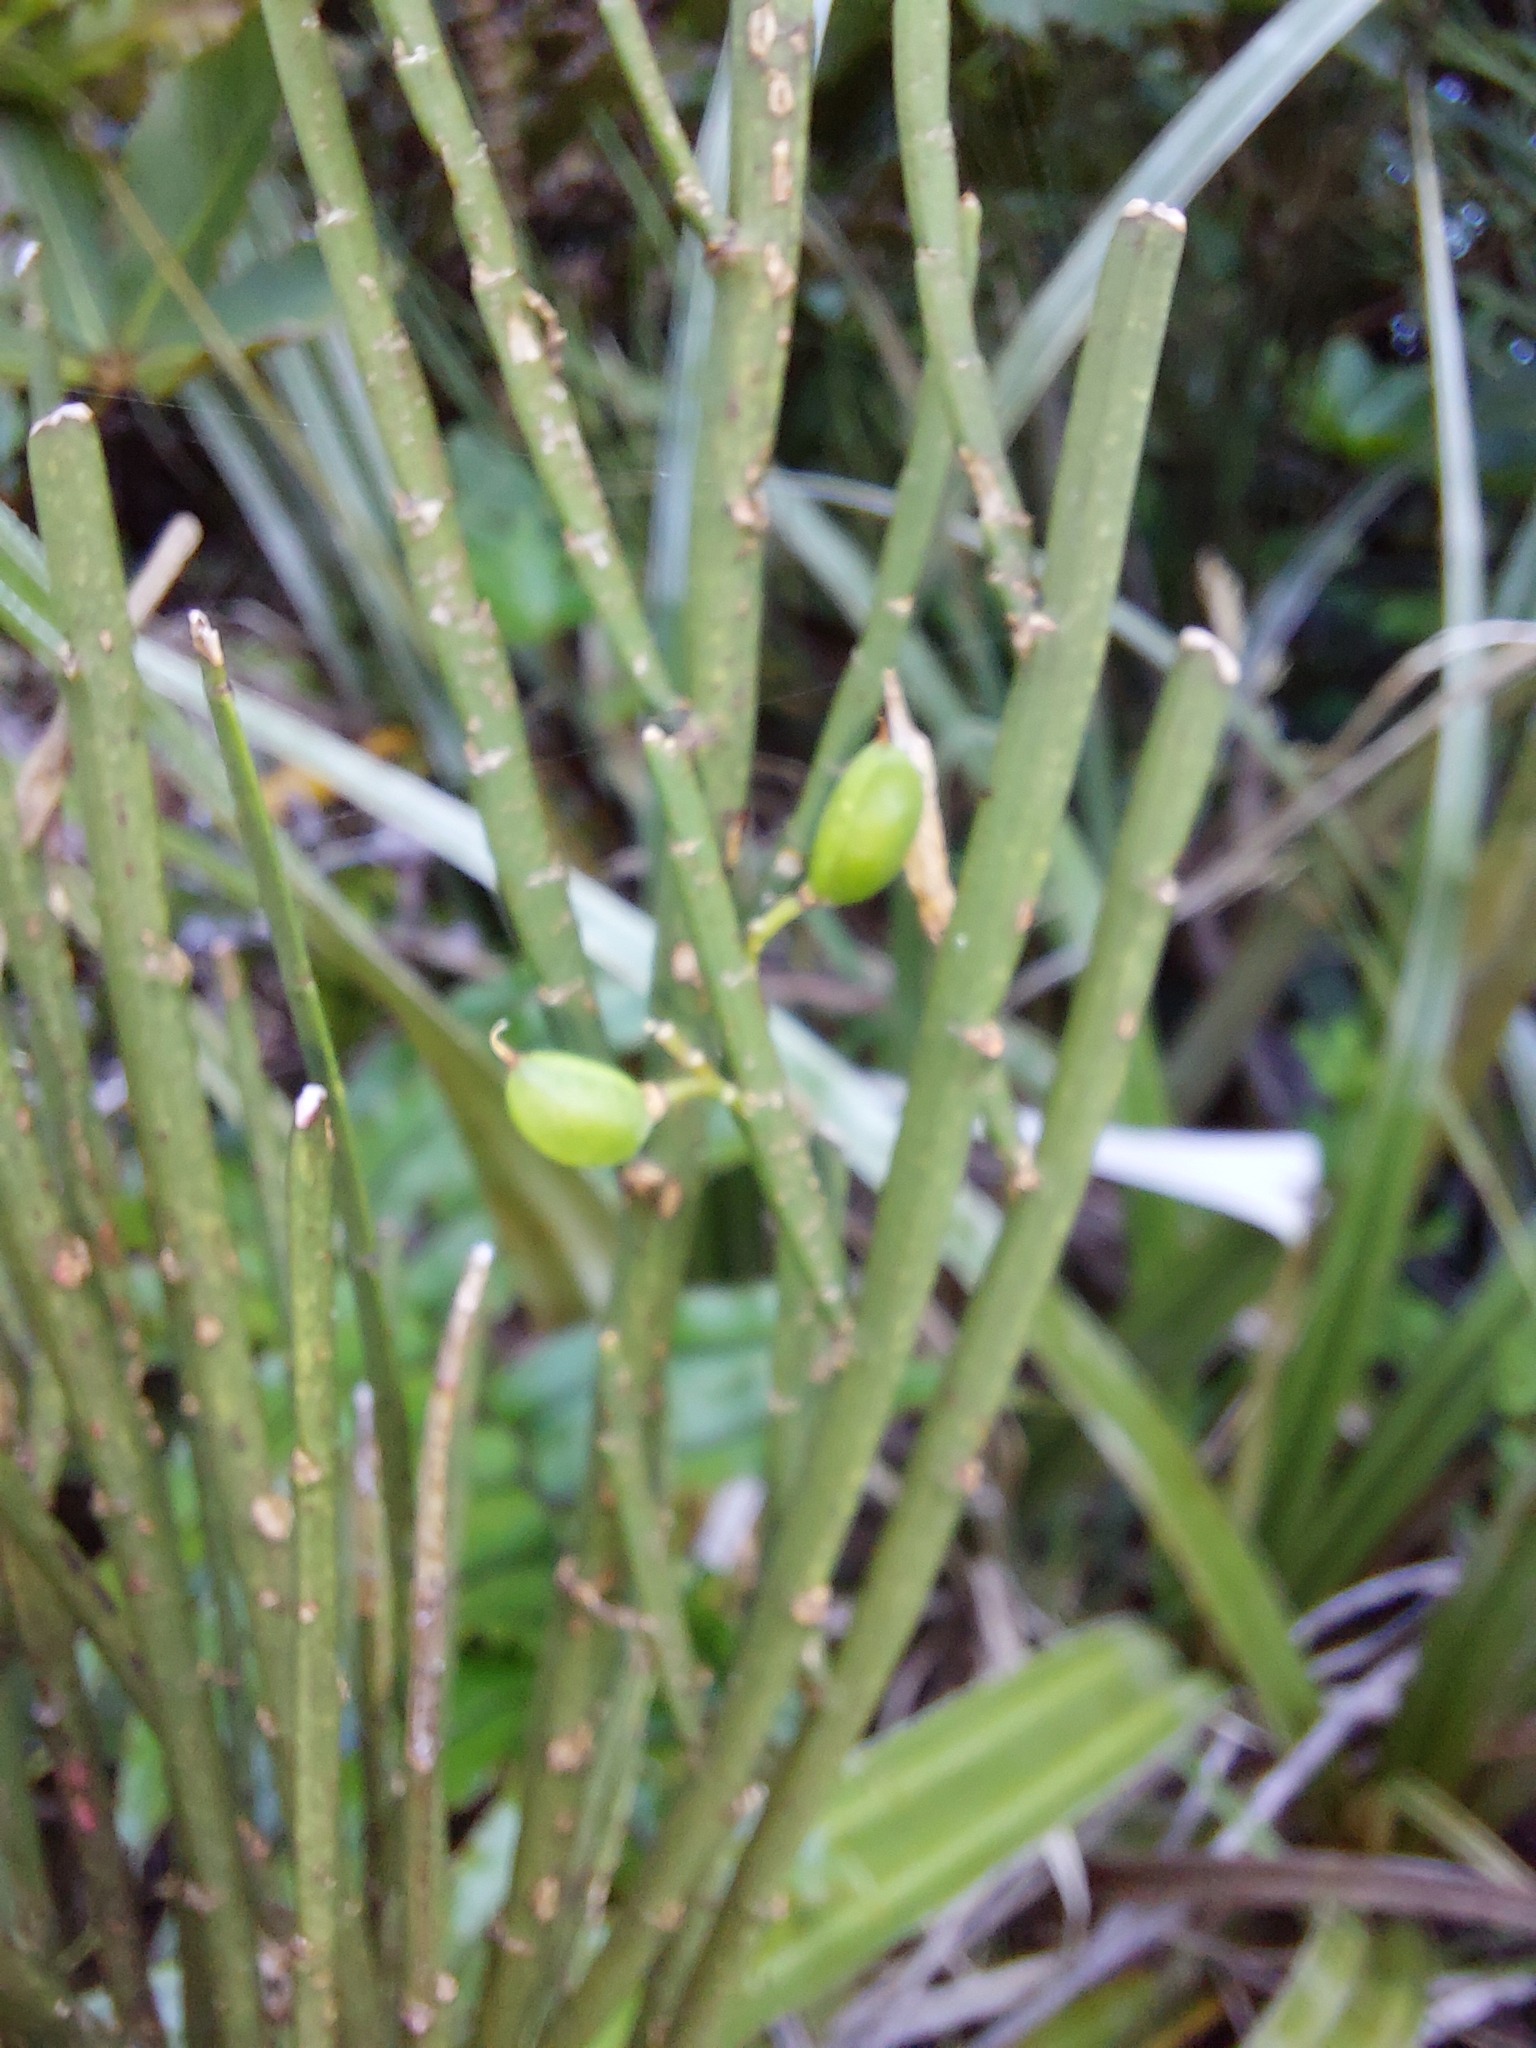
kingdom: Plantae
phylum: Tracheophyta
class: Magnoliopsida
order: Fabales
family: Fabaceae
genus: Carmichaelia
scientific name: Carmichaelia australis
